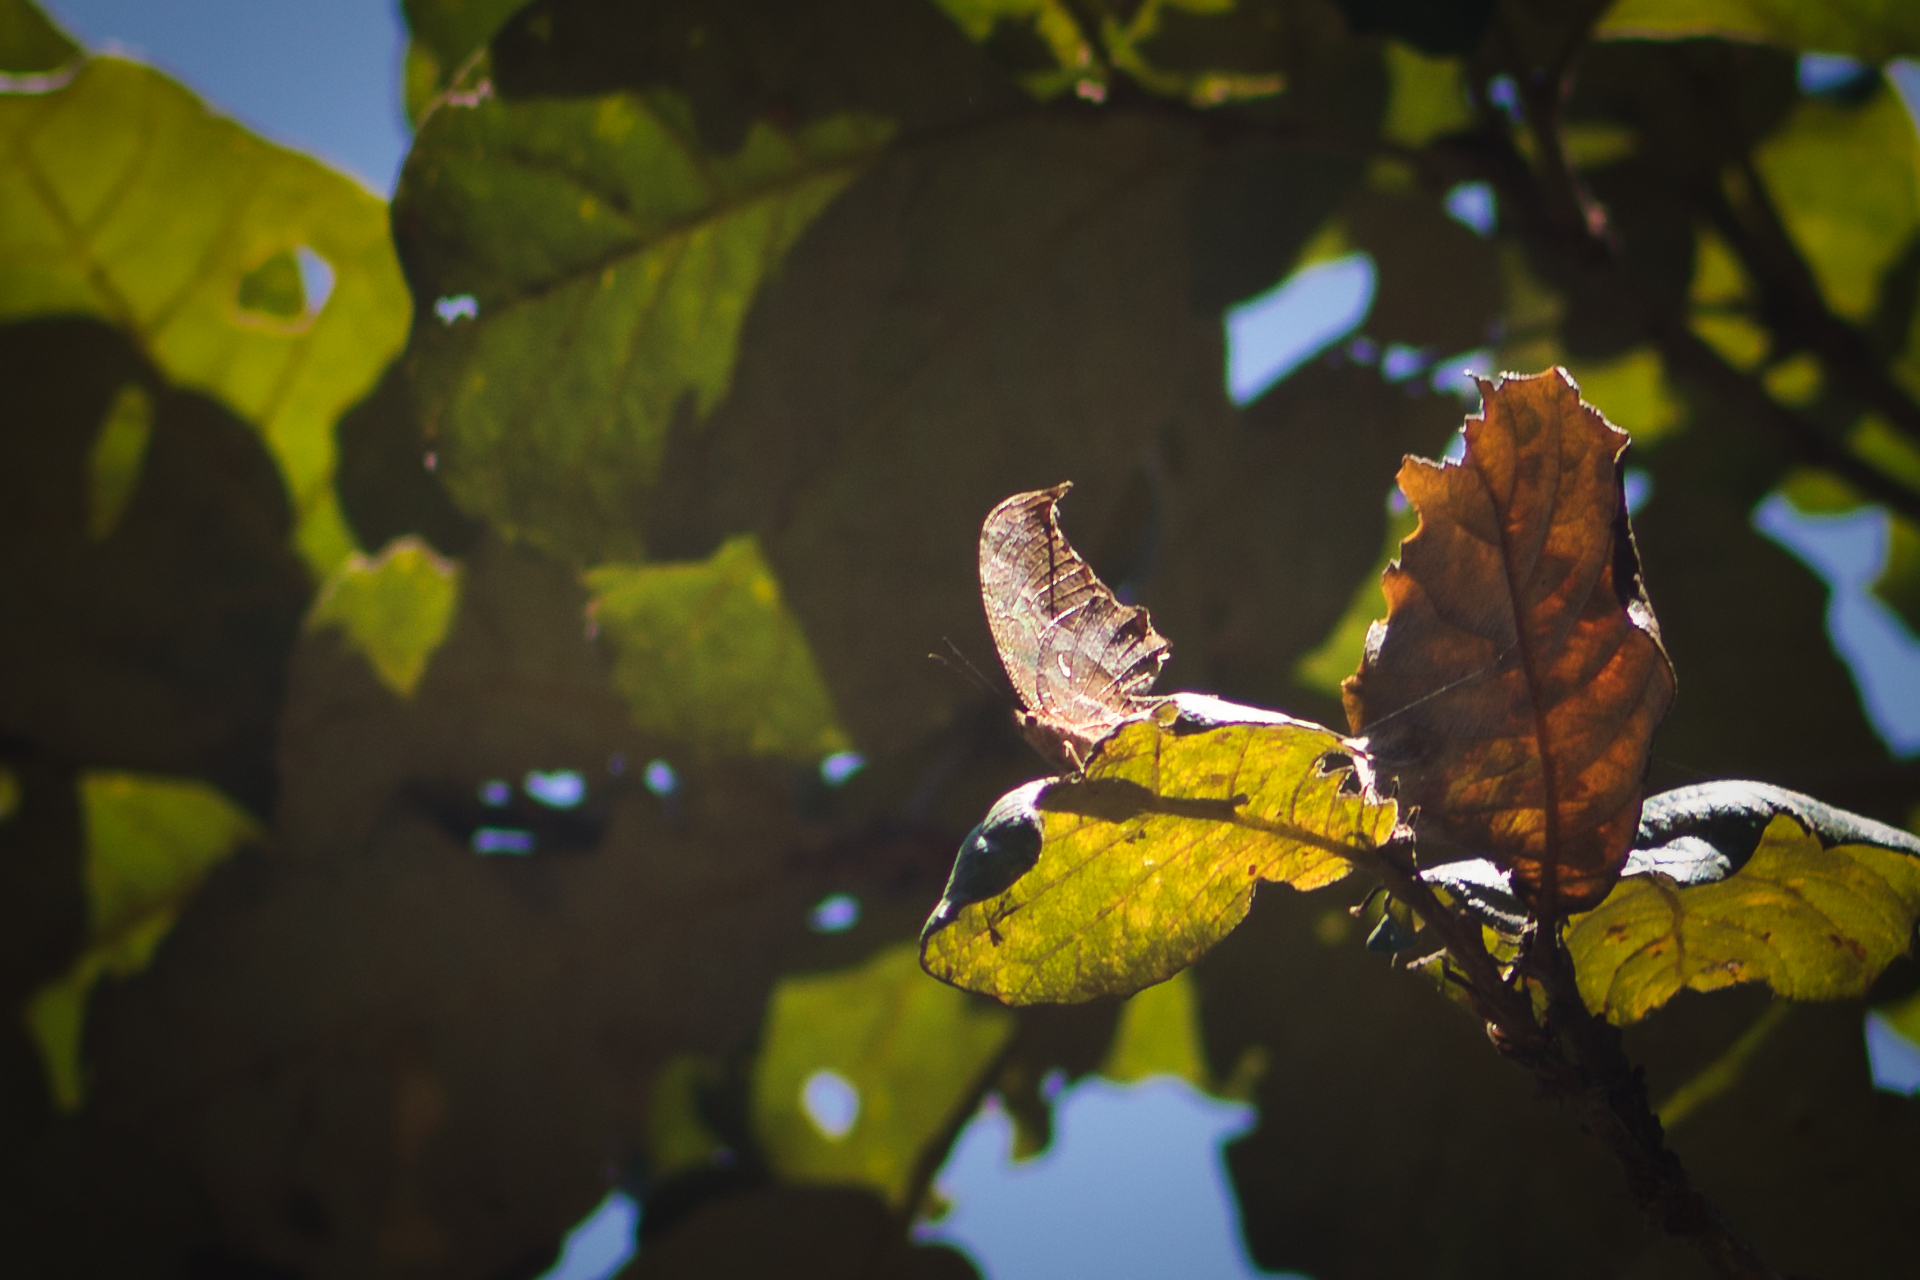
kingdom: Animalia
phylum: Arthropoda
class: Insecta
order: Lepidoptera
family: Nymphalidae
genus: Consul
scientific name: Consul excellens
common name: Black-veined leafwing
